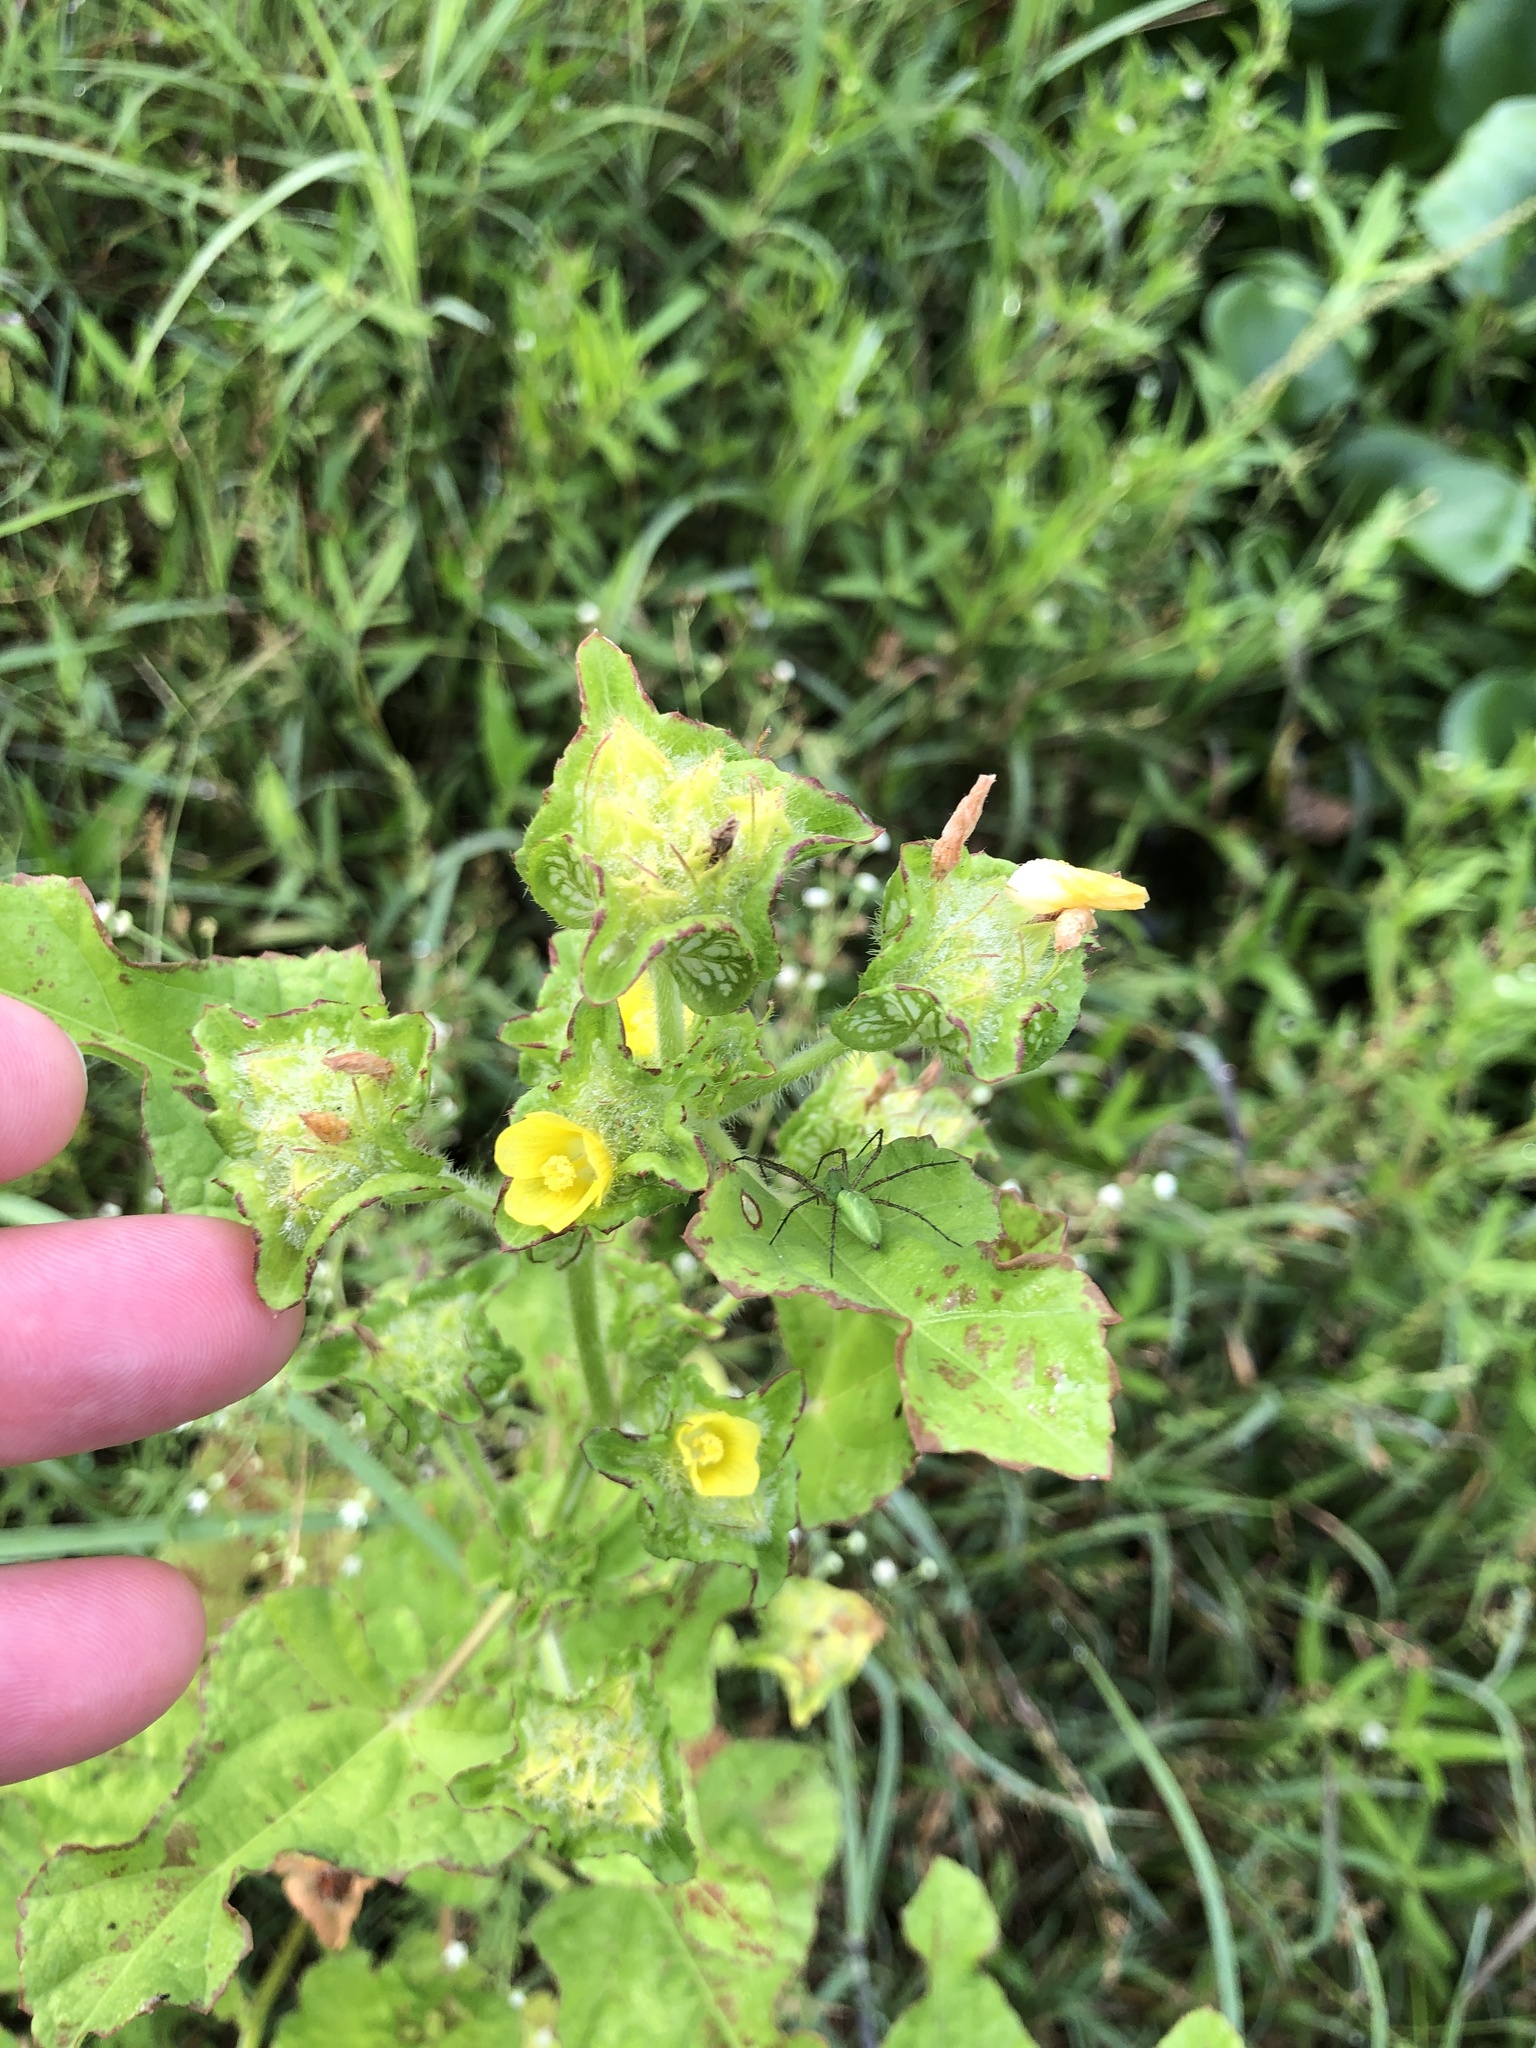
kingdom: Plantae
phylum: Tracheophyta
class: Magnoliopsida
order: Malvales
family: Malvaceae
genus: Malachra
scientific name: Malachra capitata
